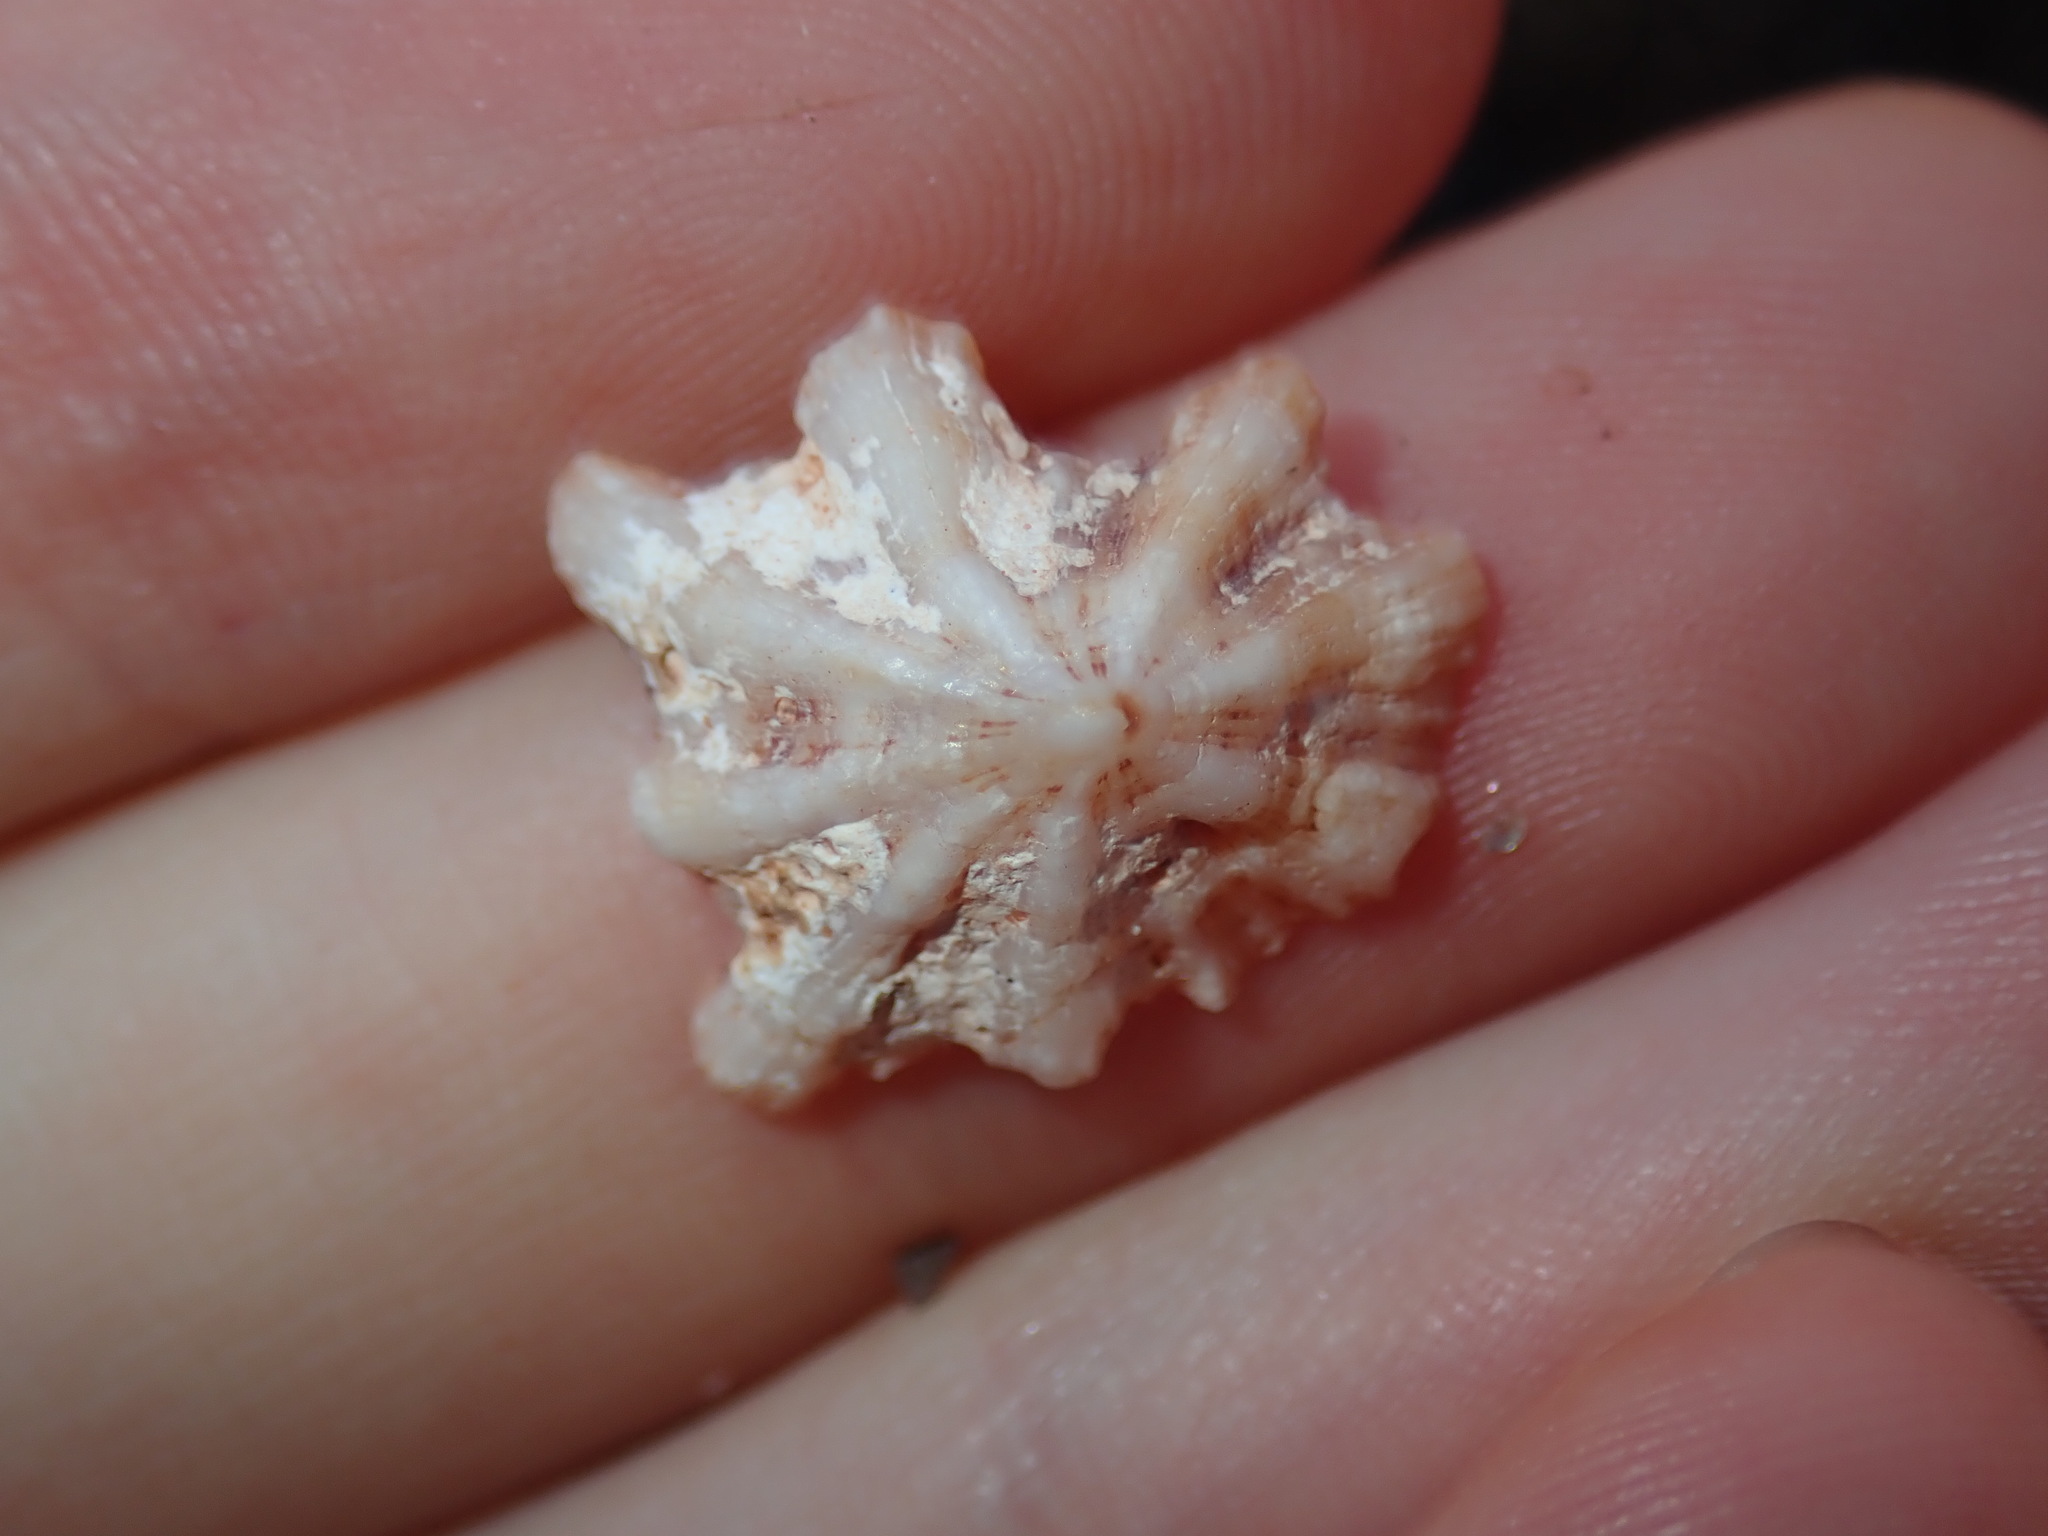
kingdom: Animalia
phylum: Mollusca
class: Gastropoda
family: Patellidae
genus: Scutellastra
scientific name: Scutellastra chapmani
